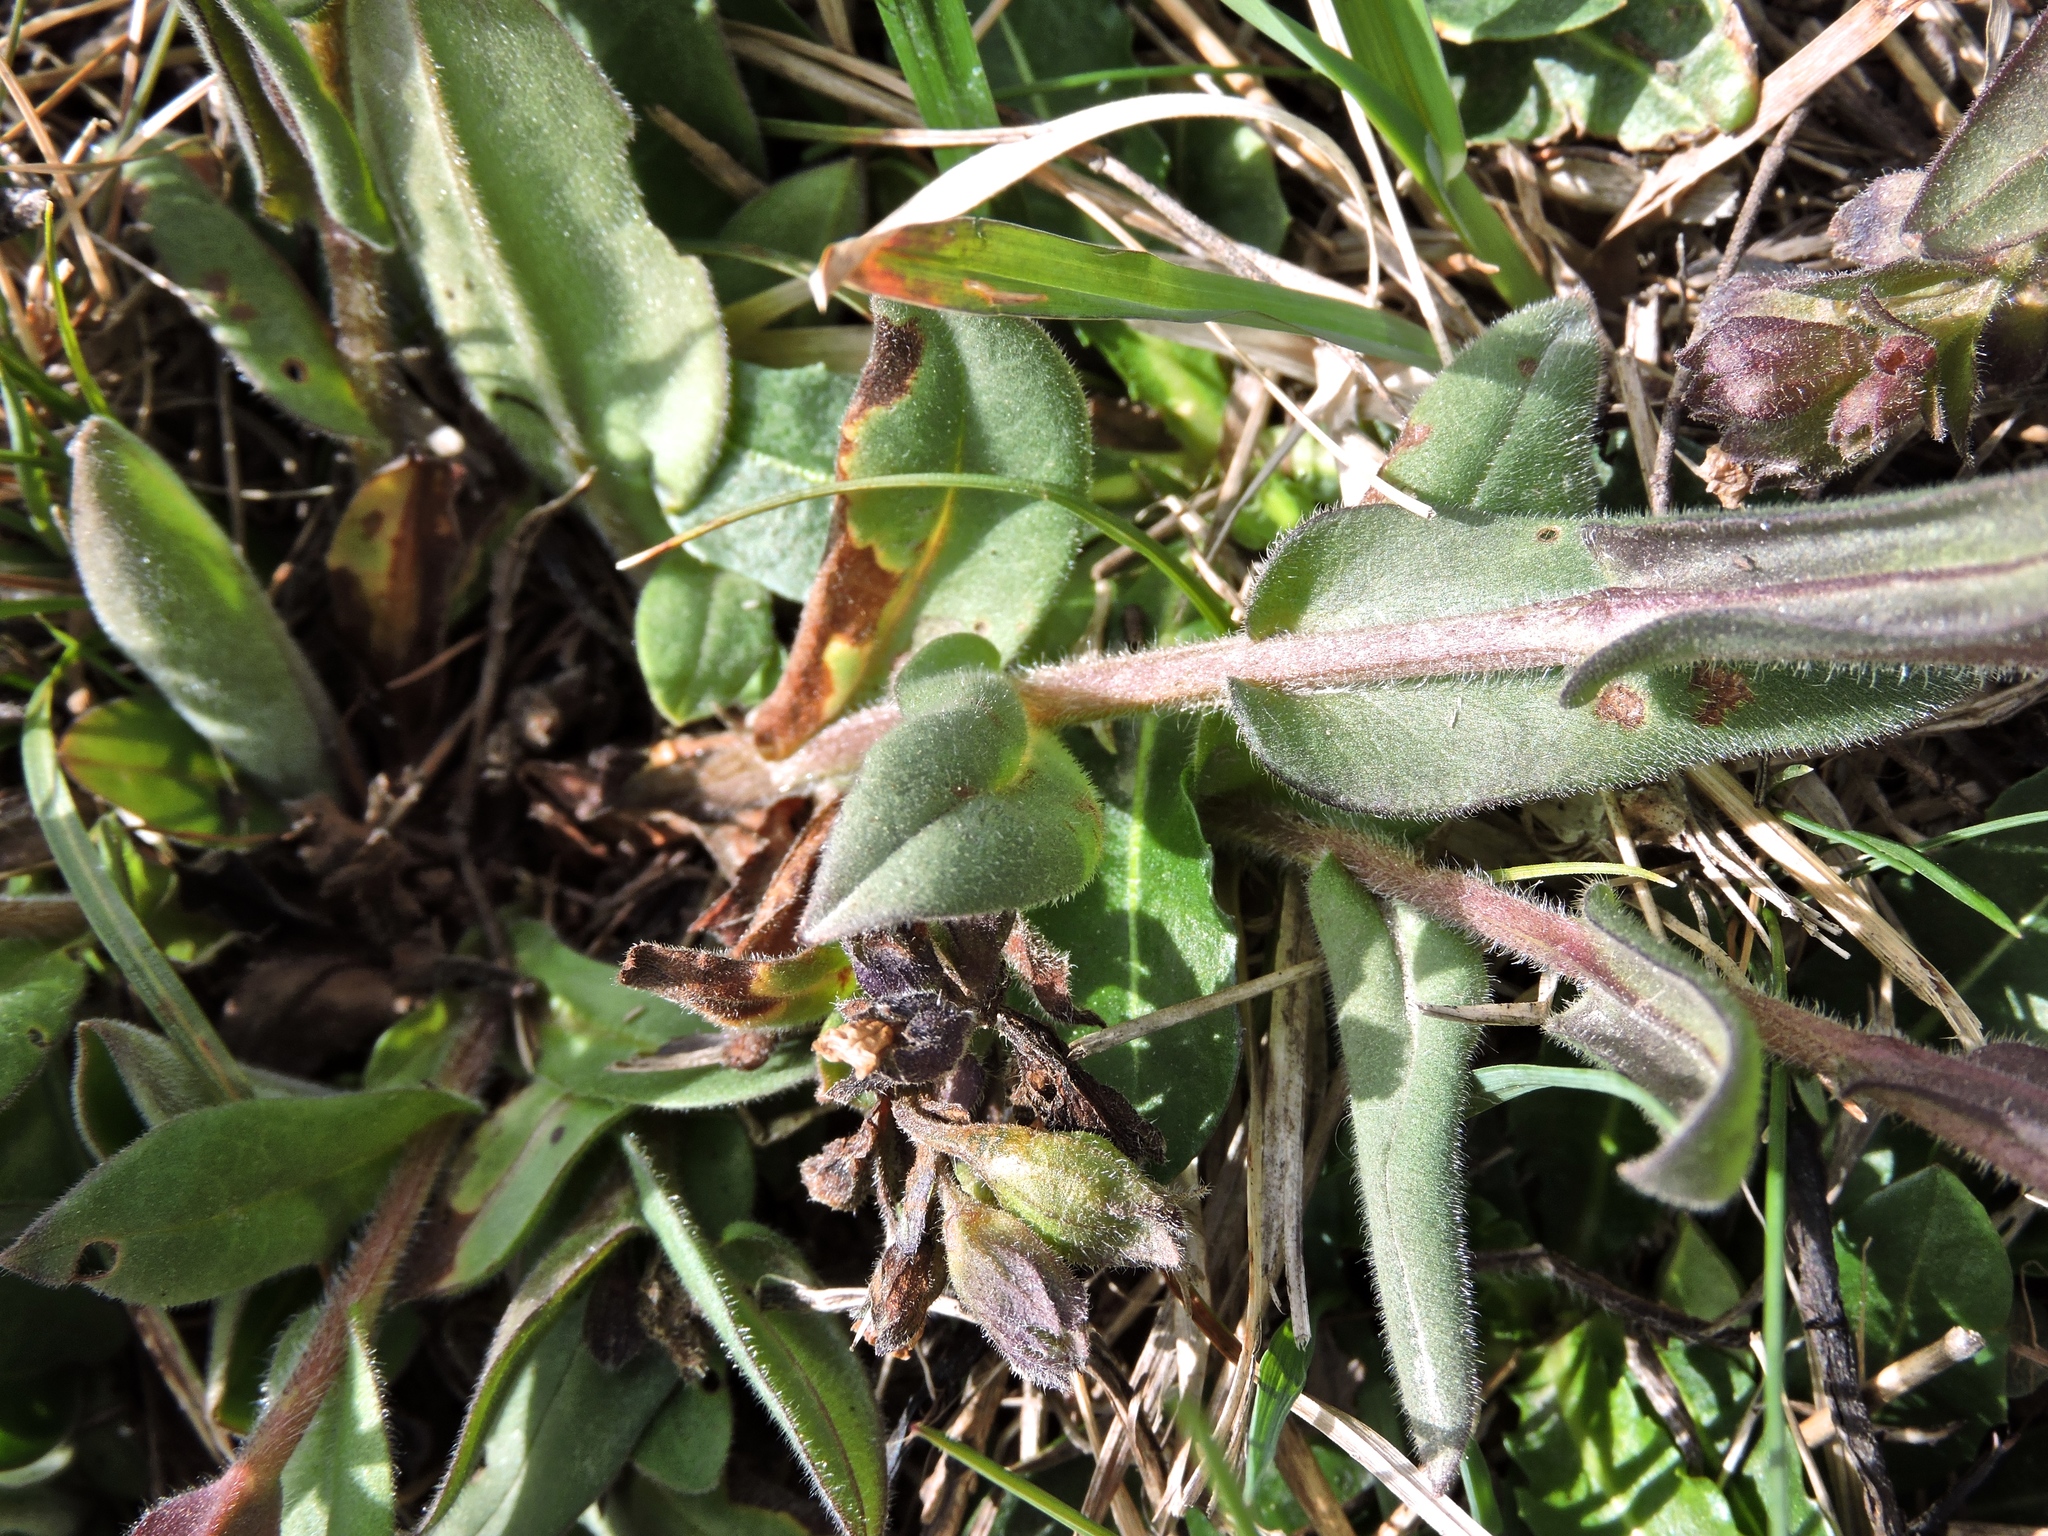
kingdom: Plantae
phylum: Tracheophyta
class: Magnoliopsida
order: Boraginales
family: Boraginaceae
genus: Pulmonaria
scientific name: Pulmonaria australis
